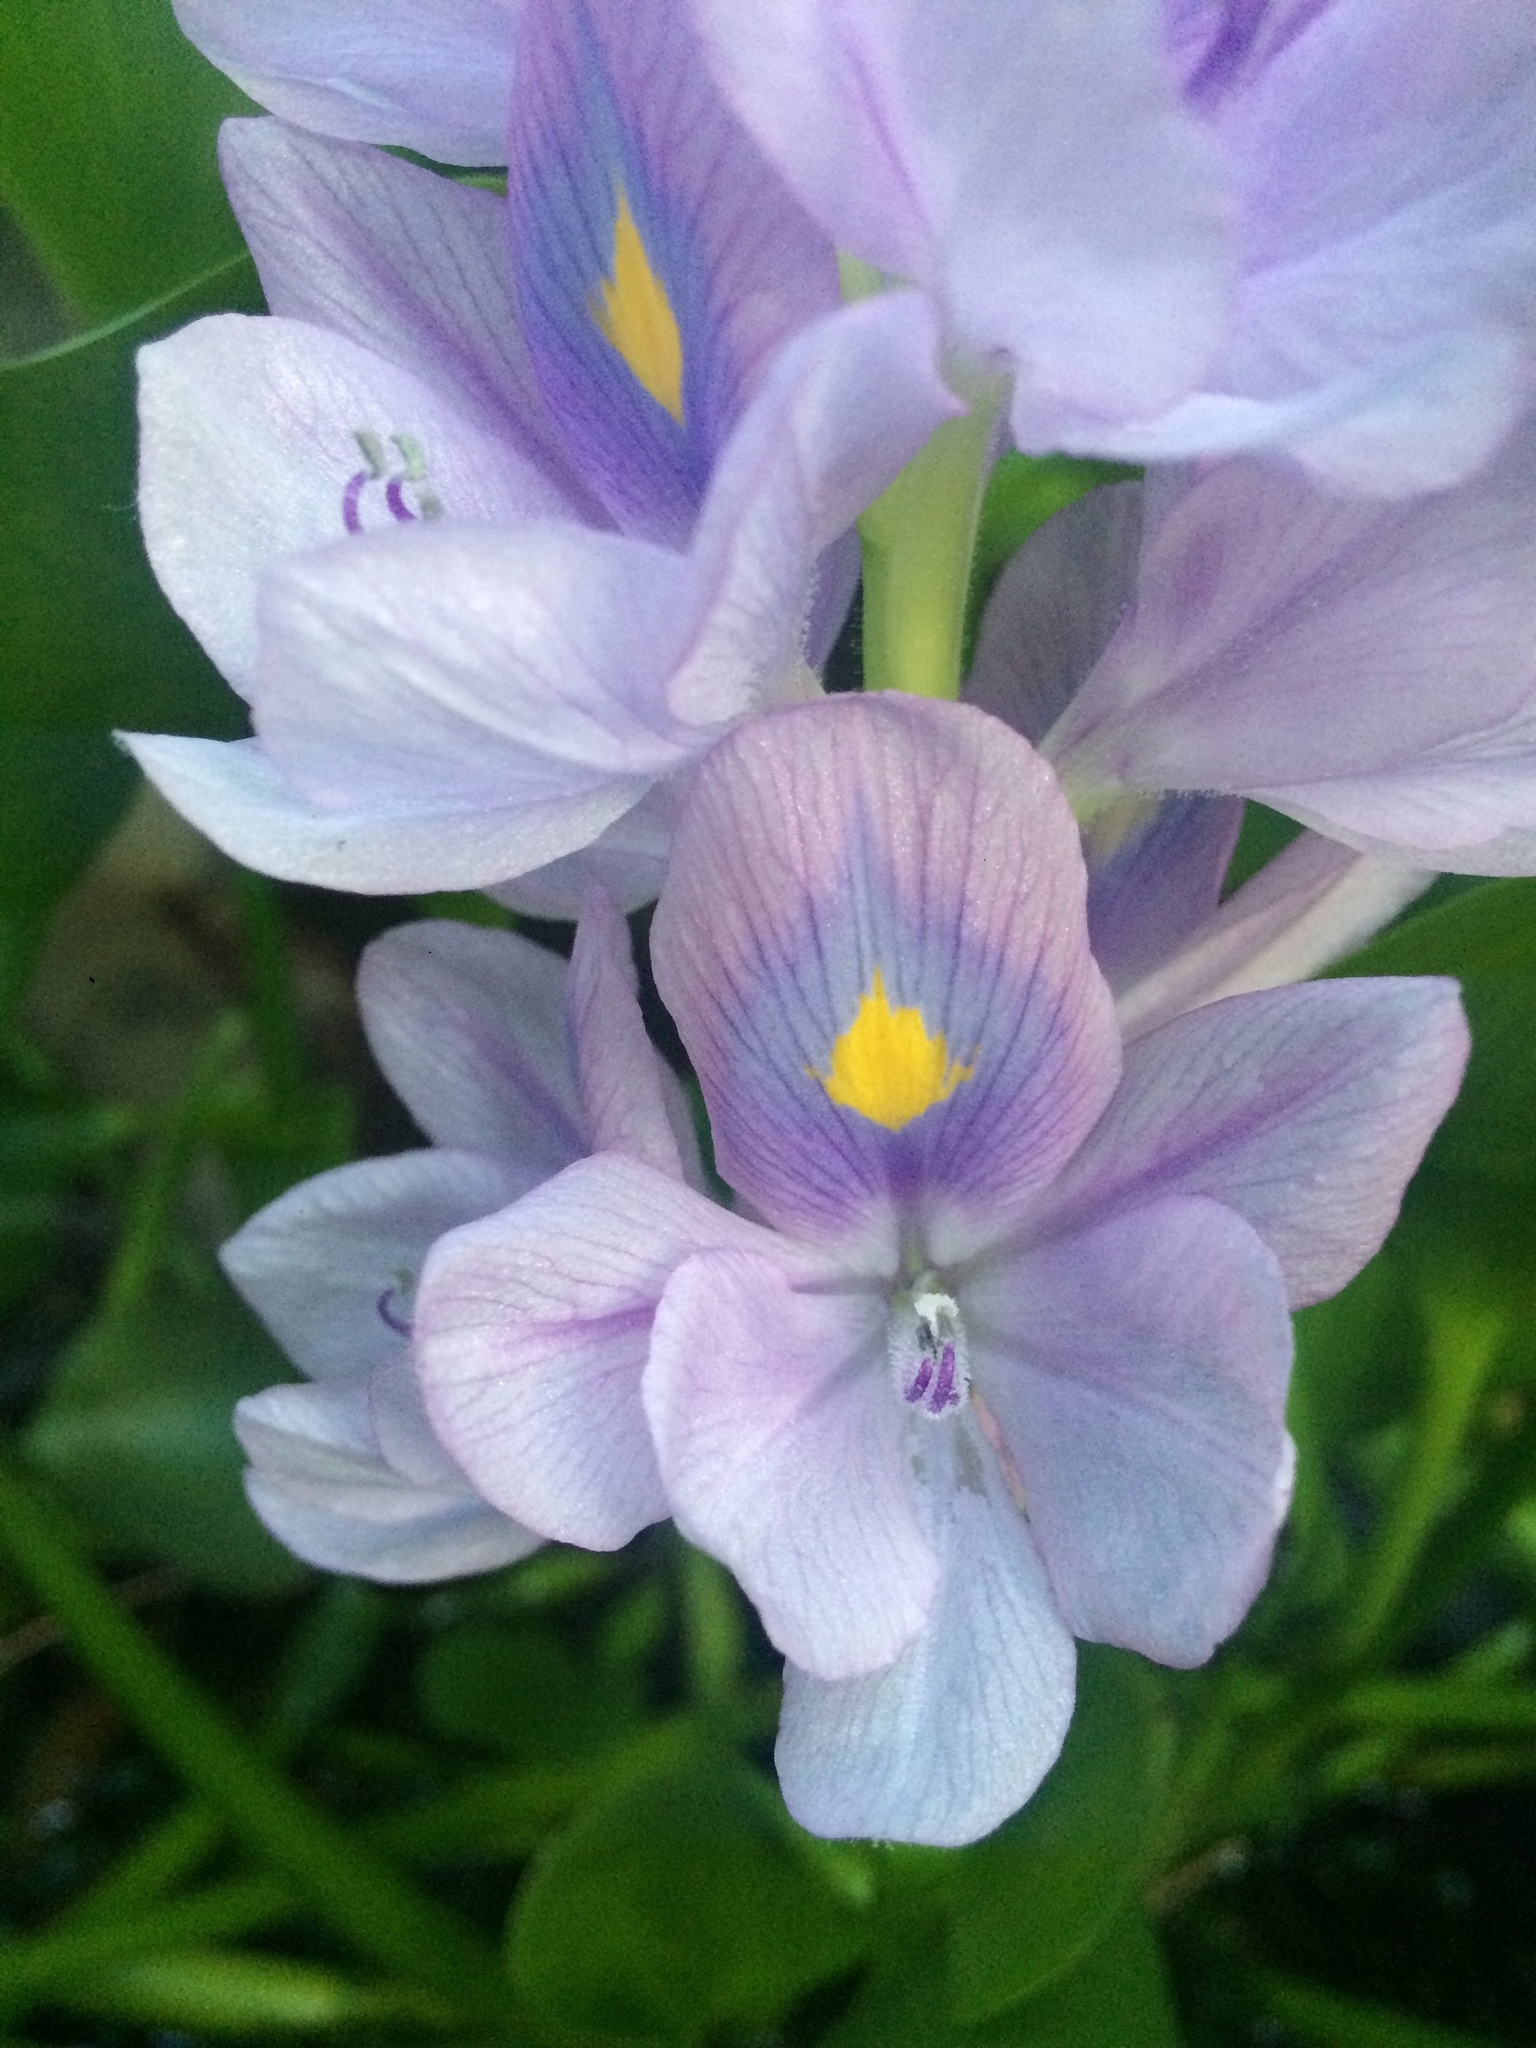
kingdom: Plantae
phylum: Tracheophyta
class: Liliopsida
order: Commelinales
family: Pontederiaceae
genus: Pontederia
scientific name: Pontederia crassipes
